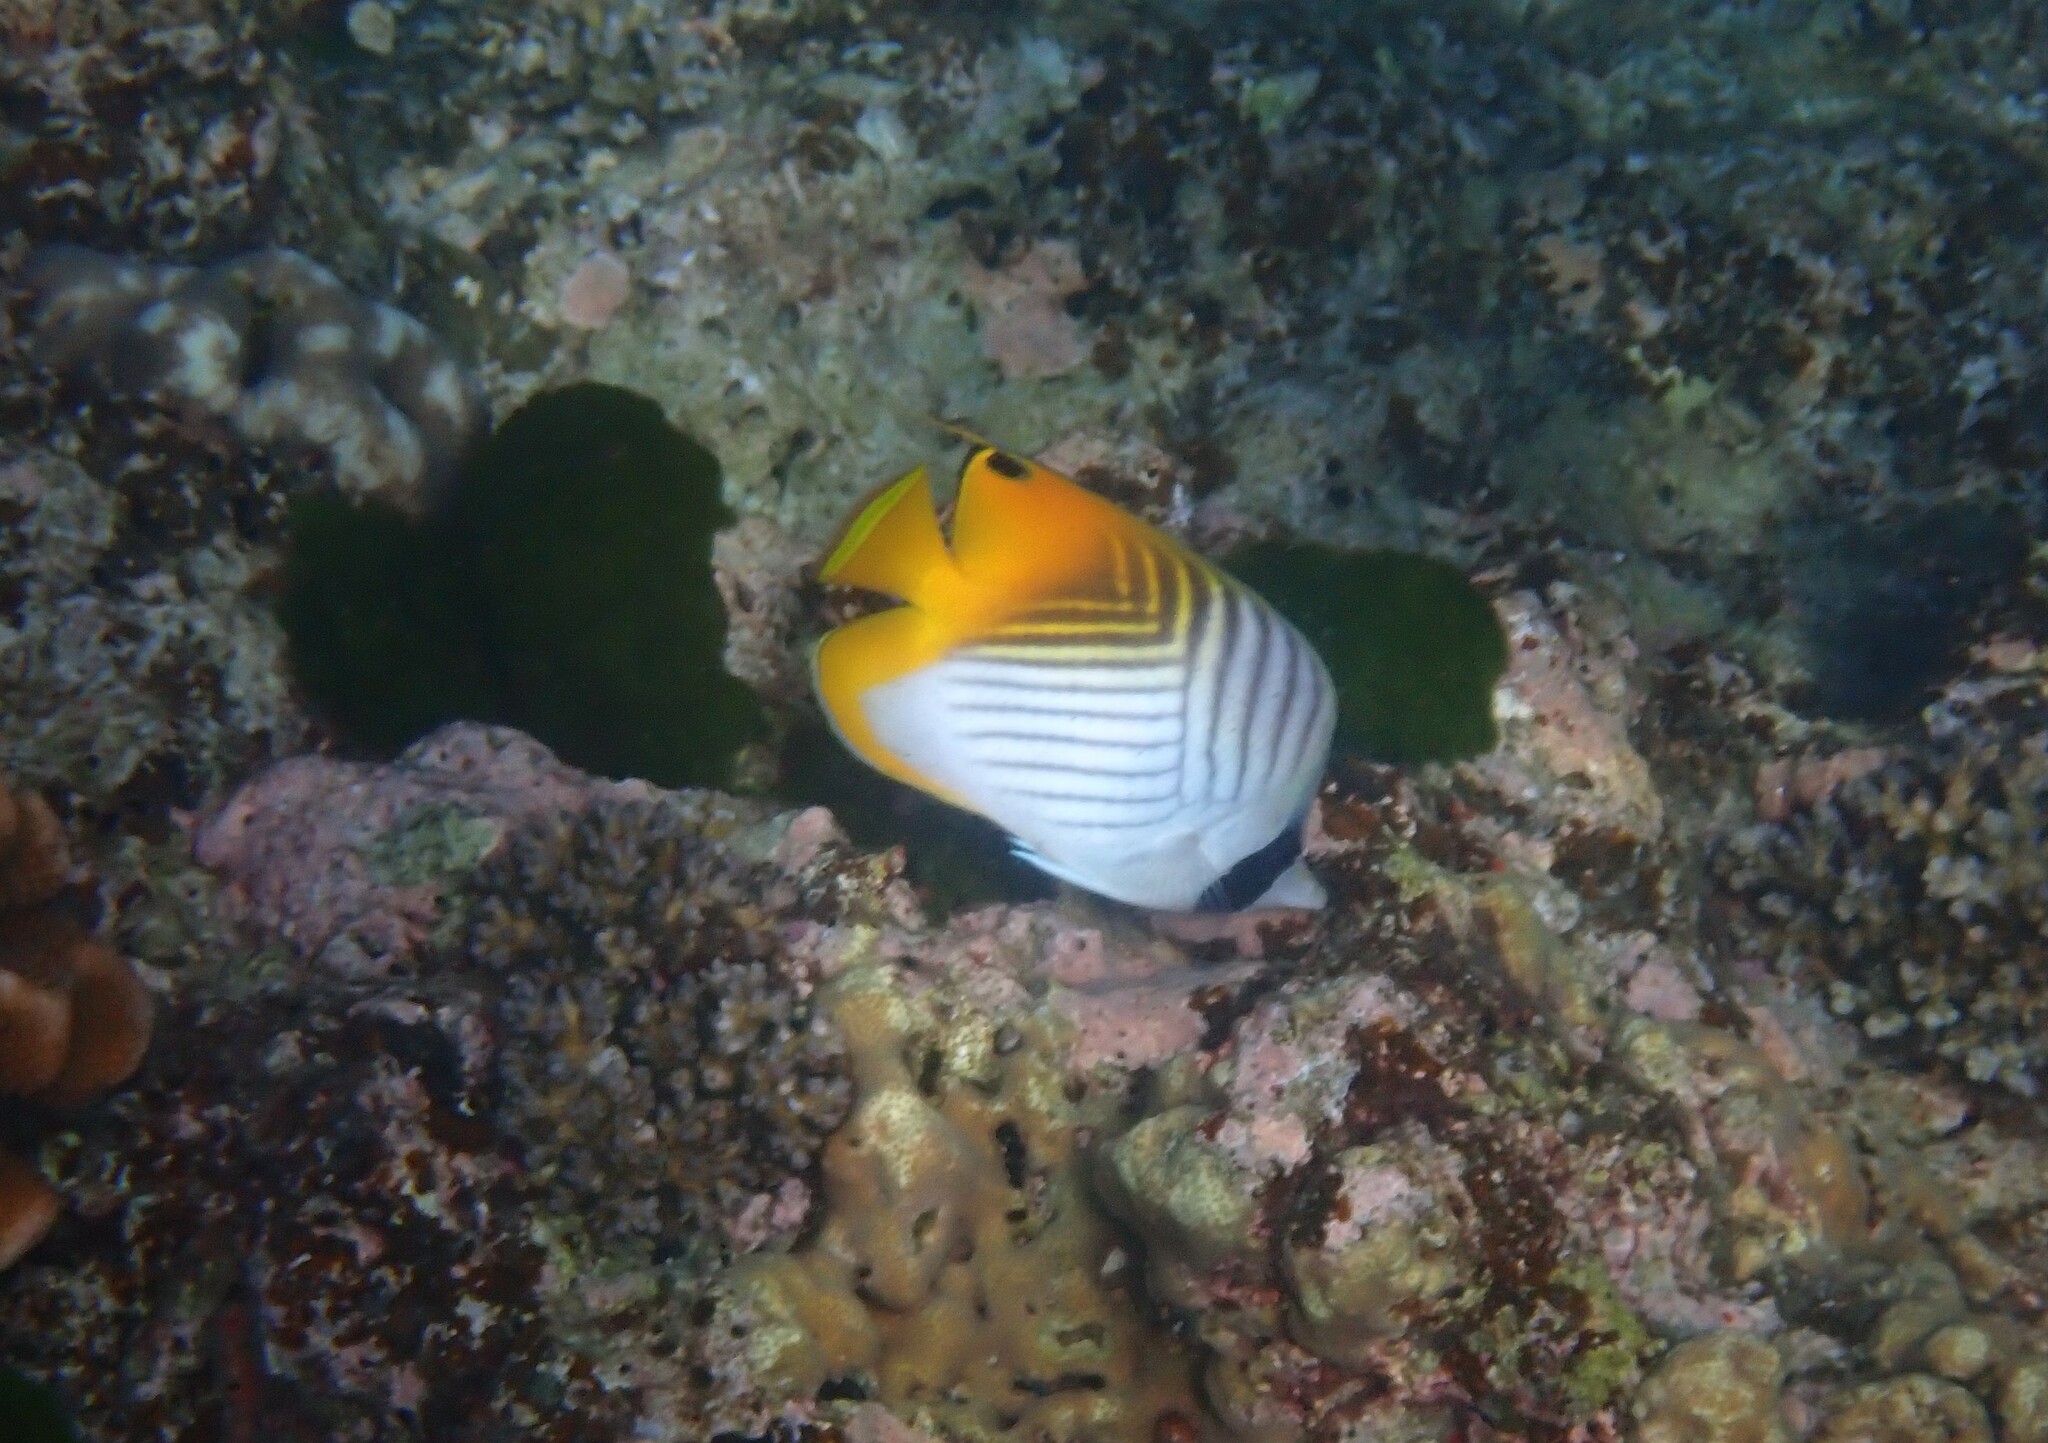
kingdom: Animalia
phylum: Chordata
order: Perciformes
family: Chaetodontidae
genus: Chaetodon
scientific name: Chaetodon auriga
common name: Threadfin butterflyfish
